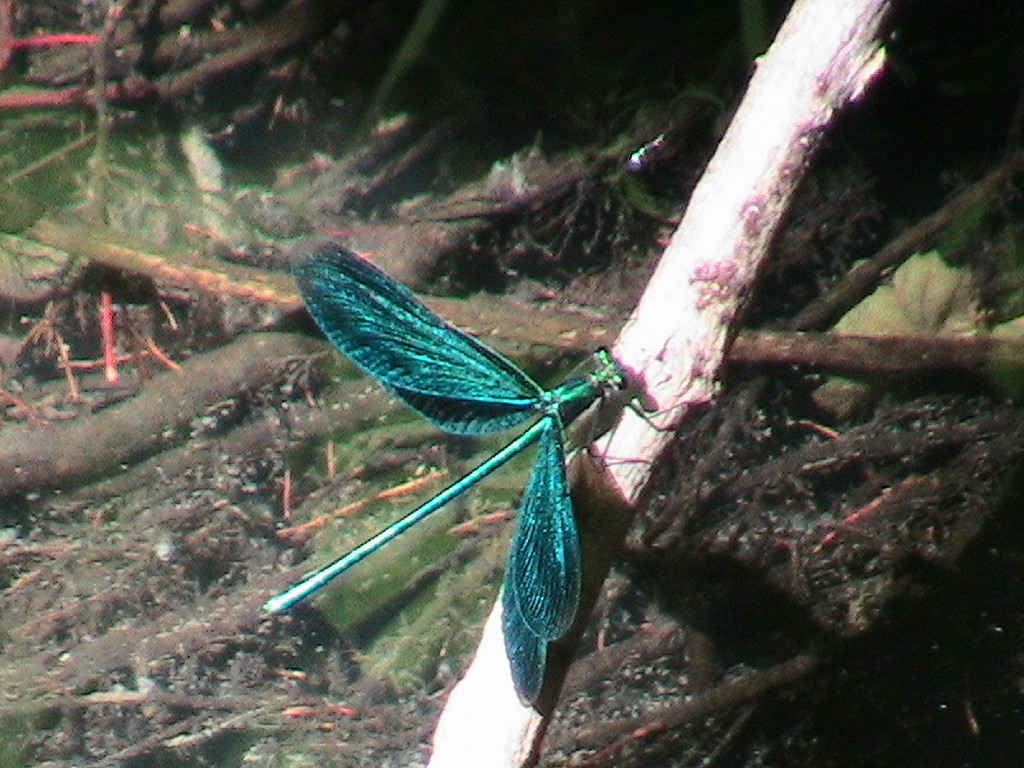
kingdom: Animalia
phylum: Arthropoda
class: Insecta
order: Odonata
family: Calopterygidae
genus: Calopteryx
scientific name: Calopteryx virgo
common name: Beautiful demoiselle
